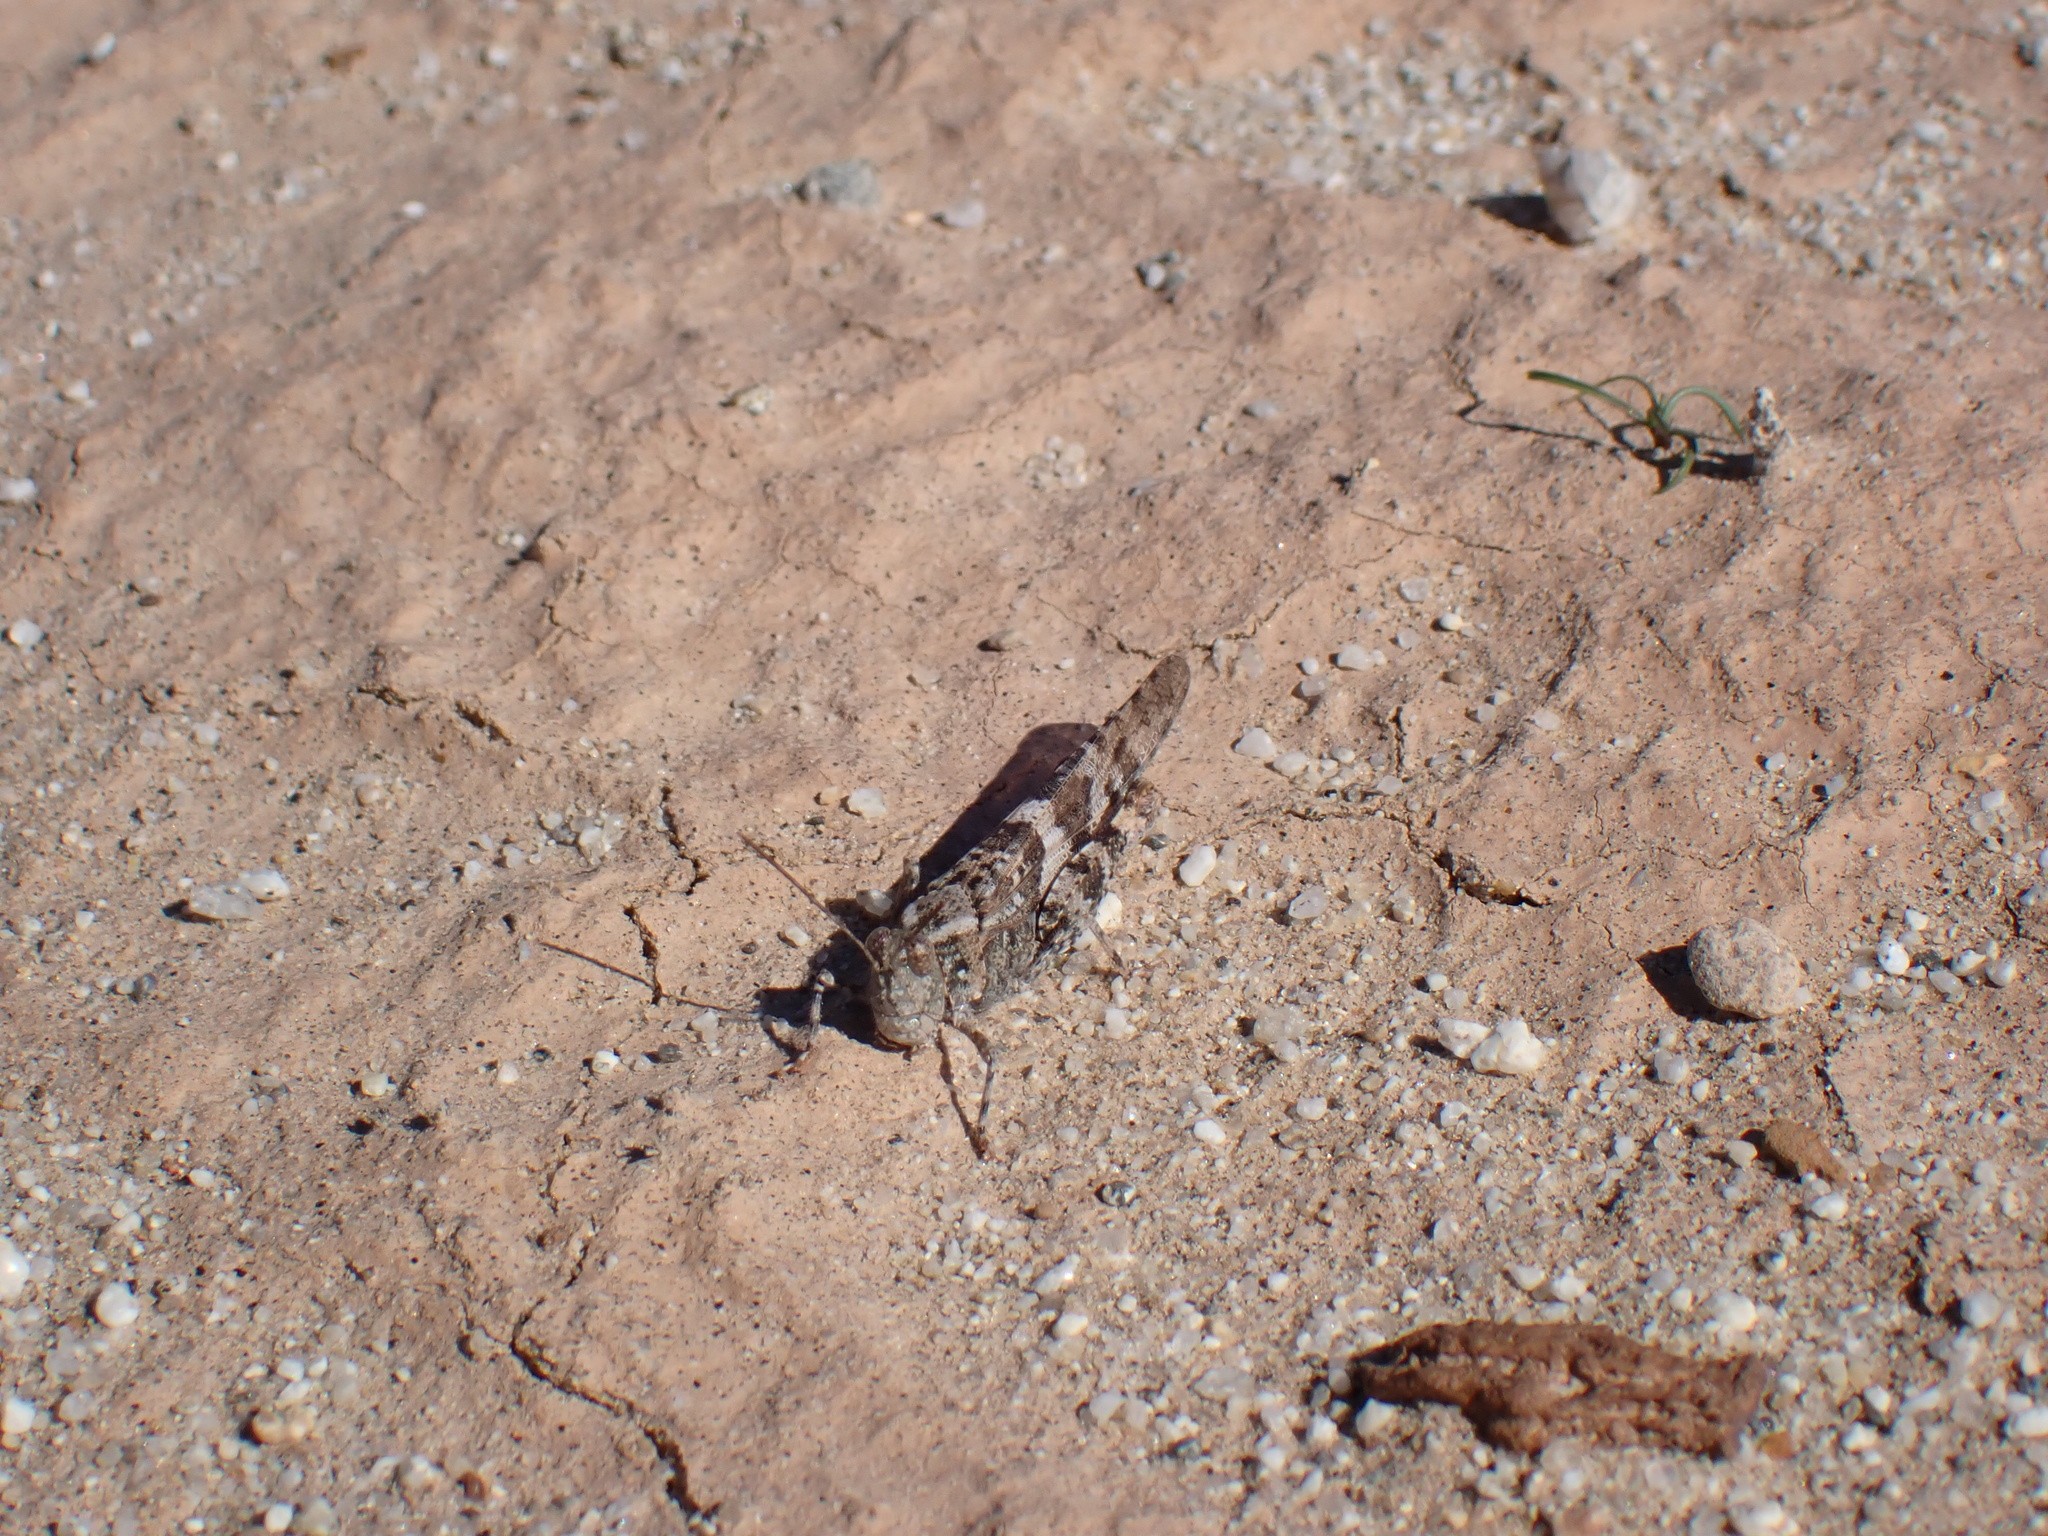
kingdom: Animalia
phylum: Arthropoda
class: Insecta
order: Orthoptera
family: Acrididae
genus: Trimerotropis
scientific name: Trimerotropis pallidipennis
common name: Pallid-winged grasshopper
